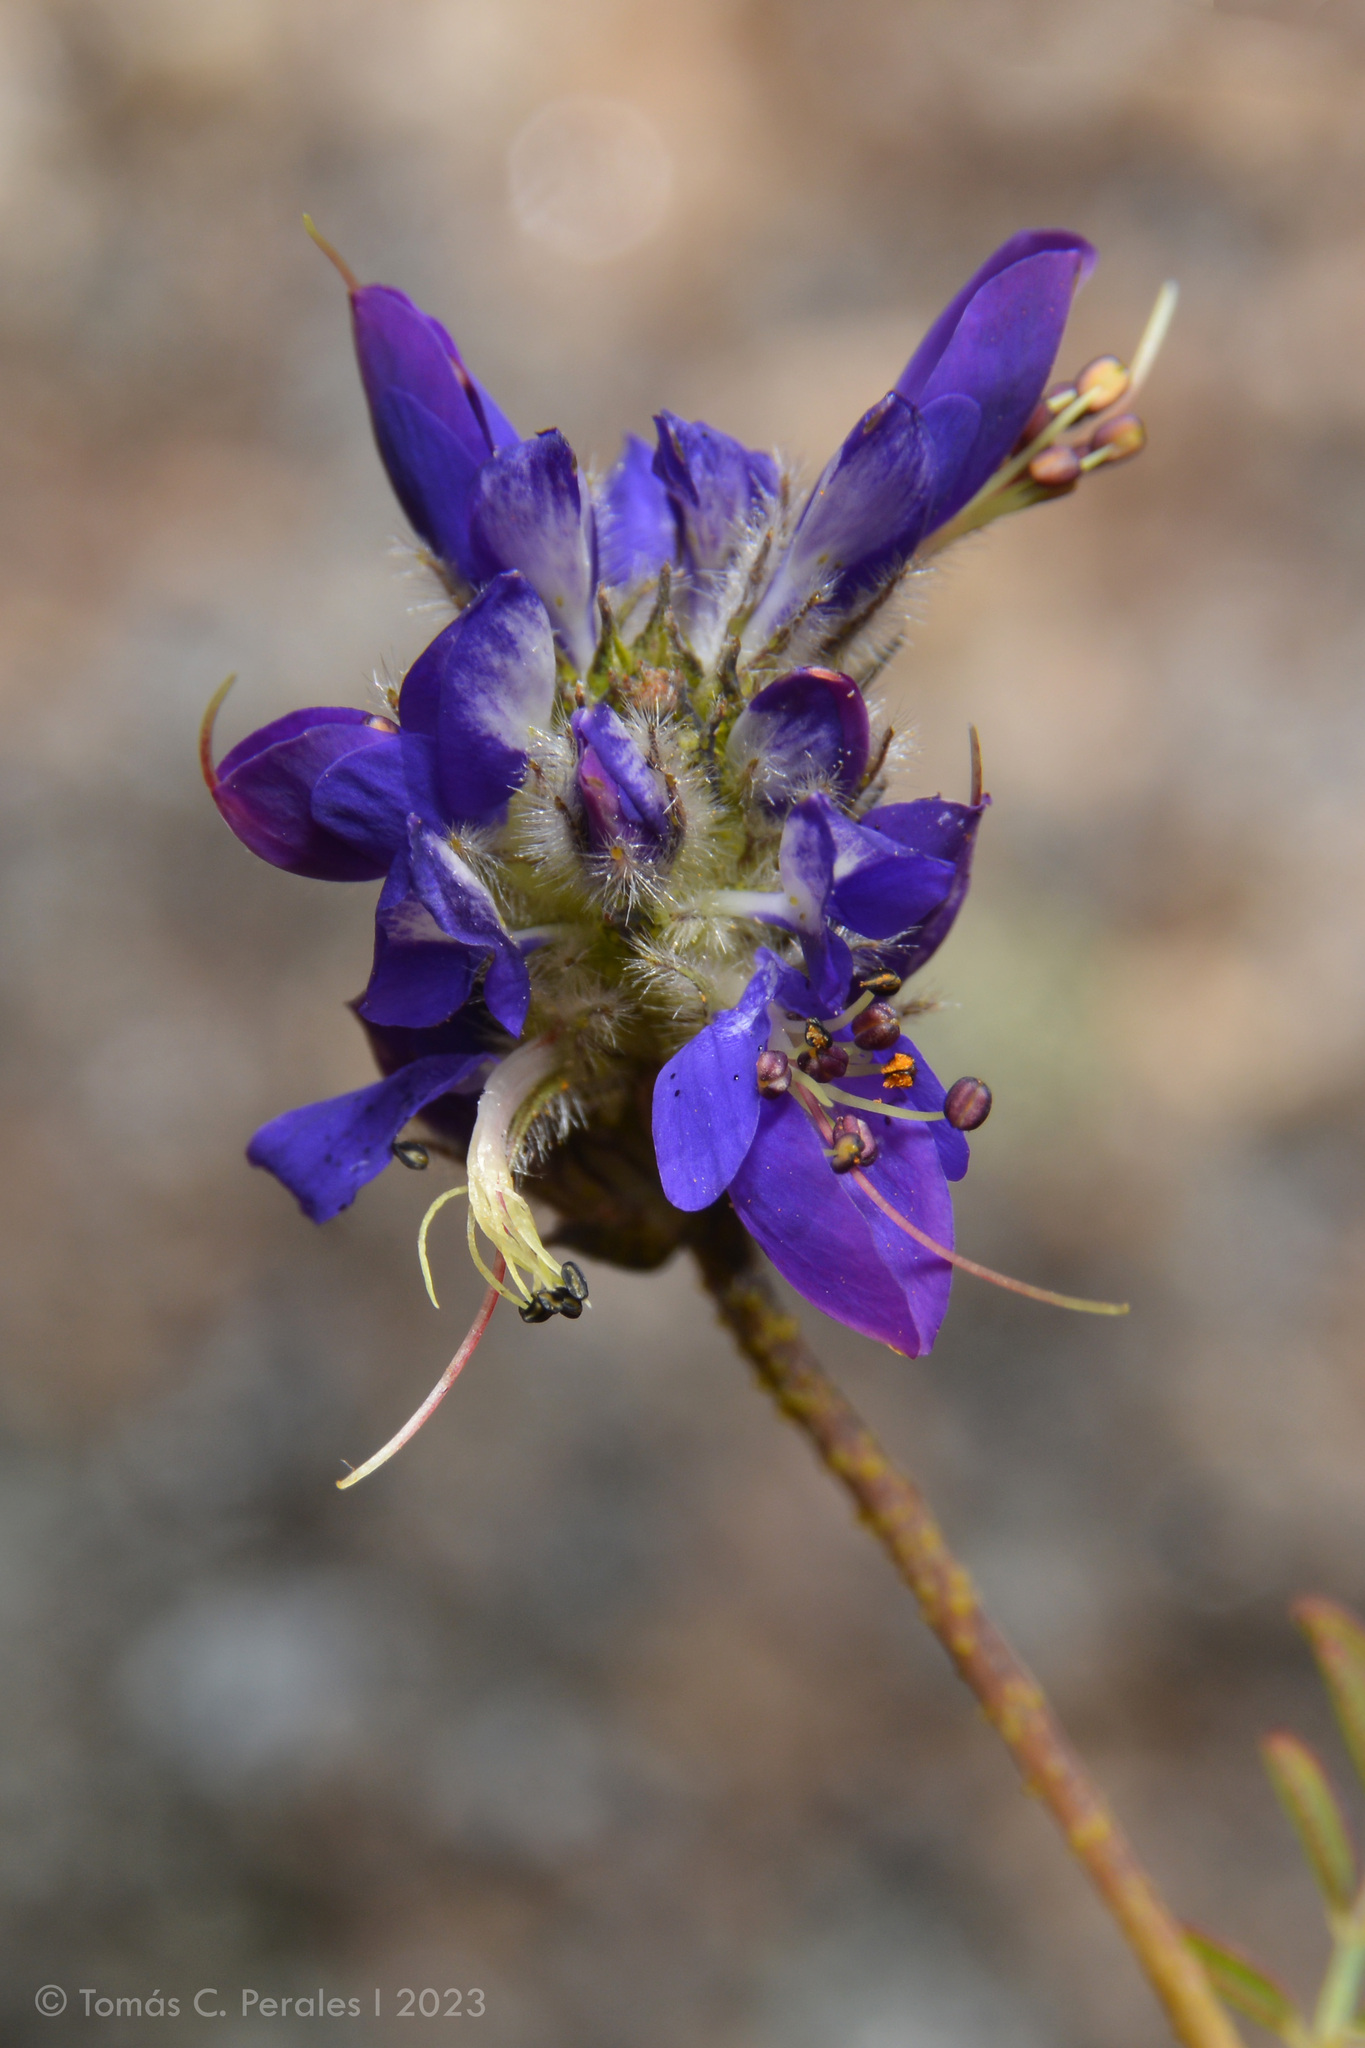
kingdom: Plantae
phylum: Tracheophyta
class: Magnoliopsida
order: Fabales
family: Fabaceae
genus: Dalea
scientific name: Dalea elegans
